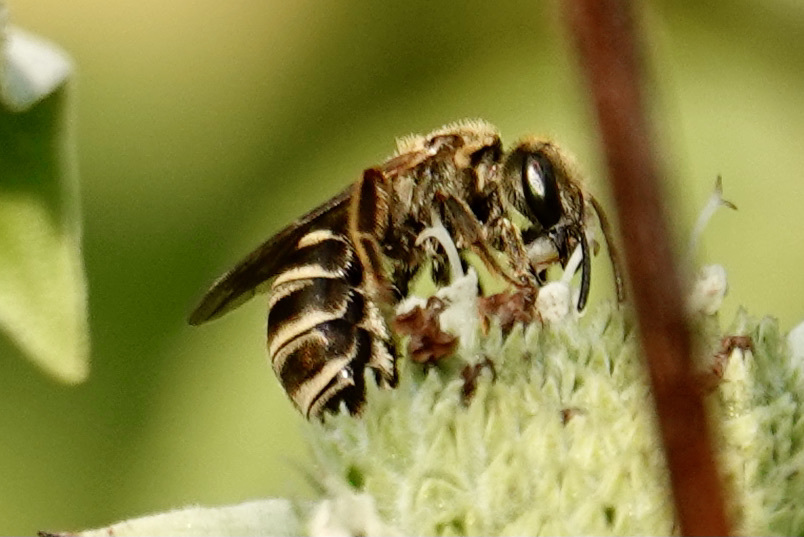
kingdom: Animalia
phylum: Arthropoda
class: Insecta
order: Hymenoptera
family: Halictidae
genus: Halictus
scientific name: Halictus confusus
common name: Southern bronze furrow bee
